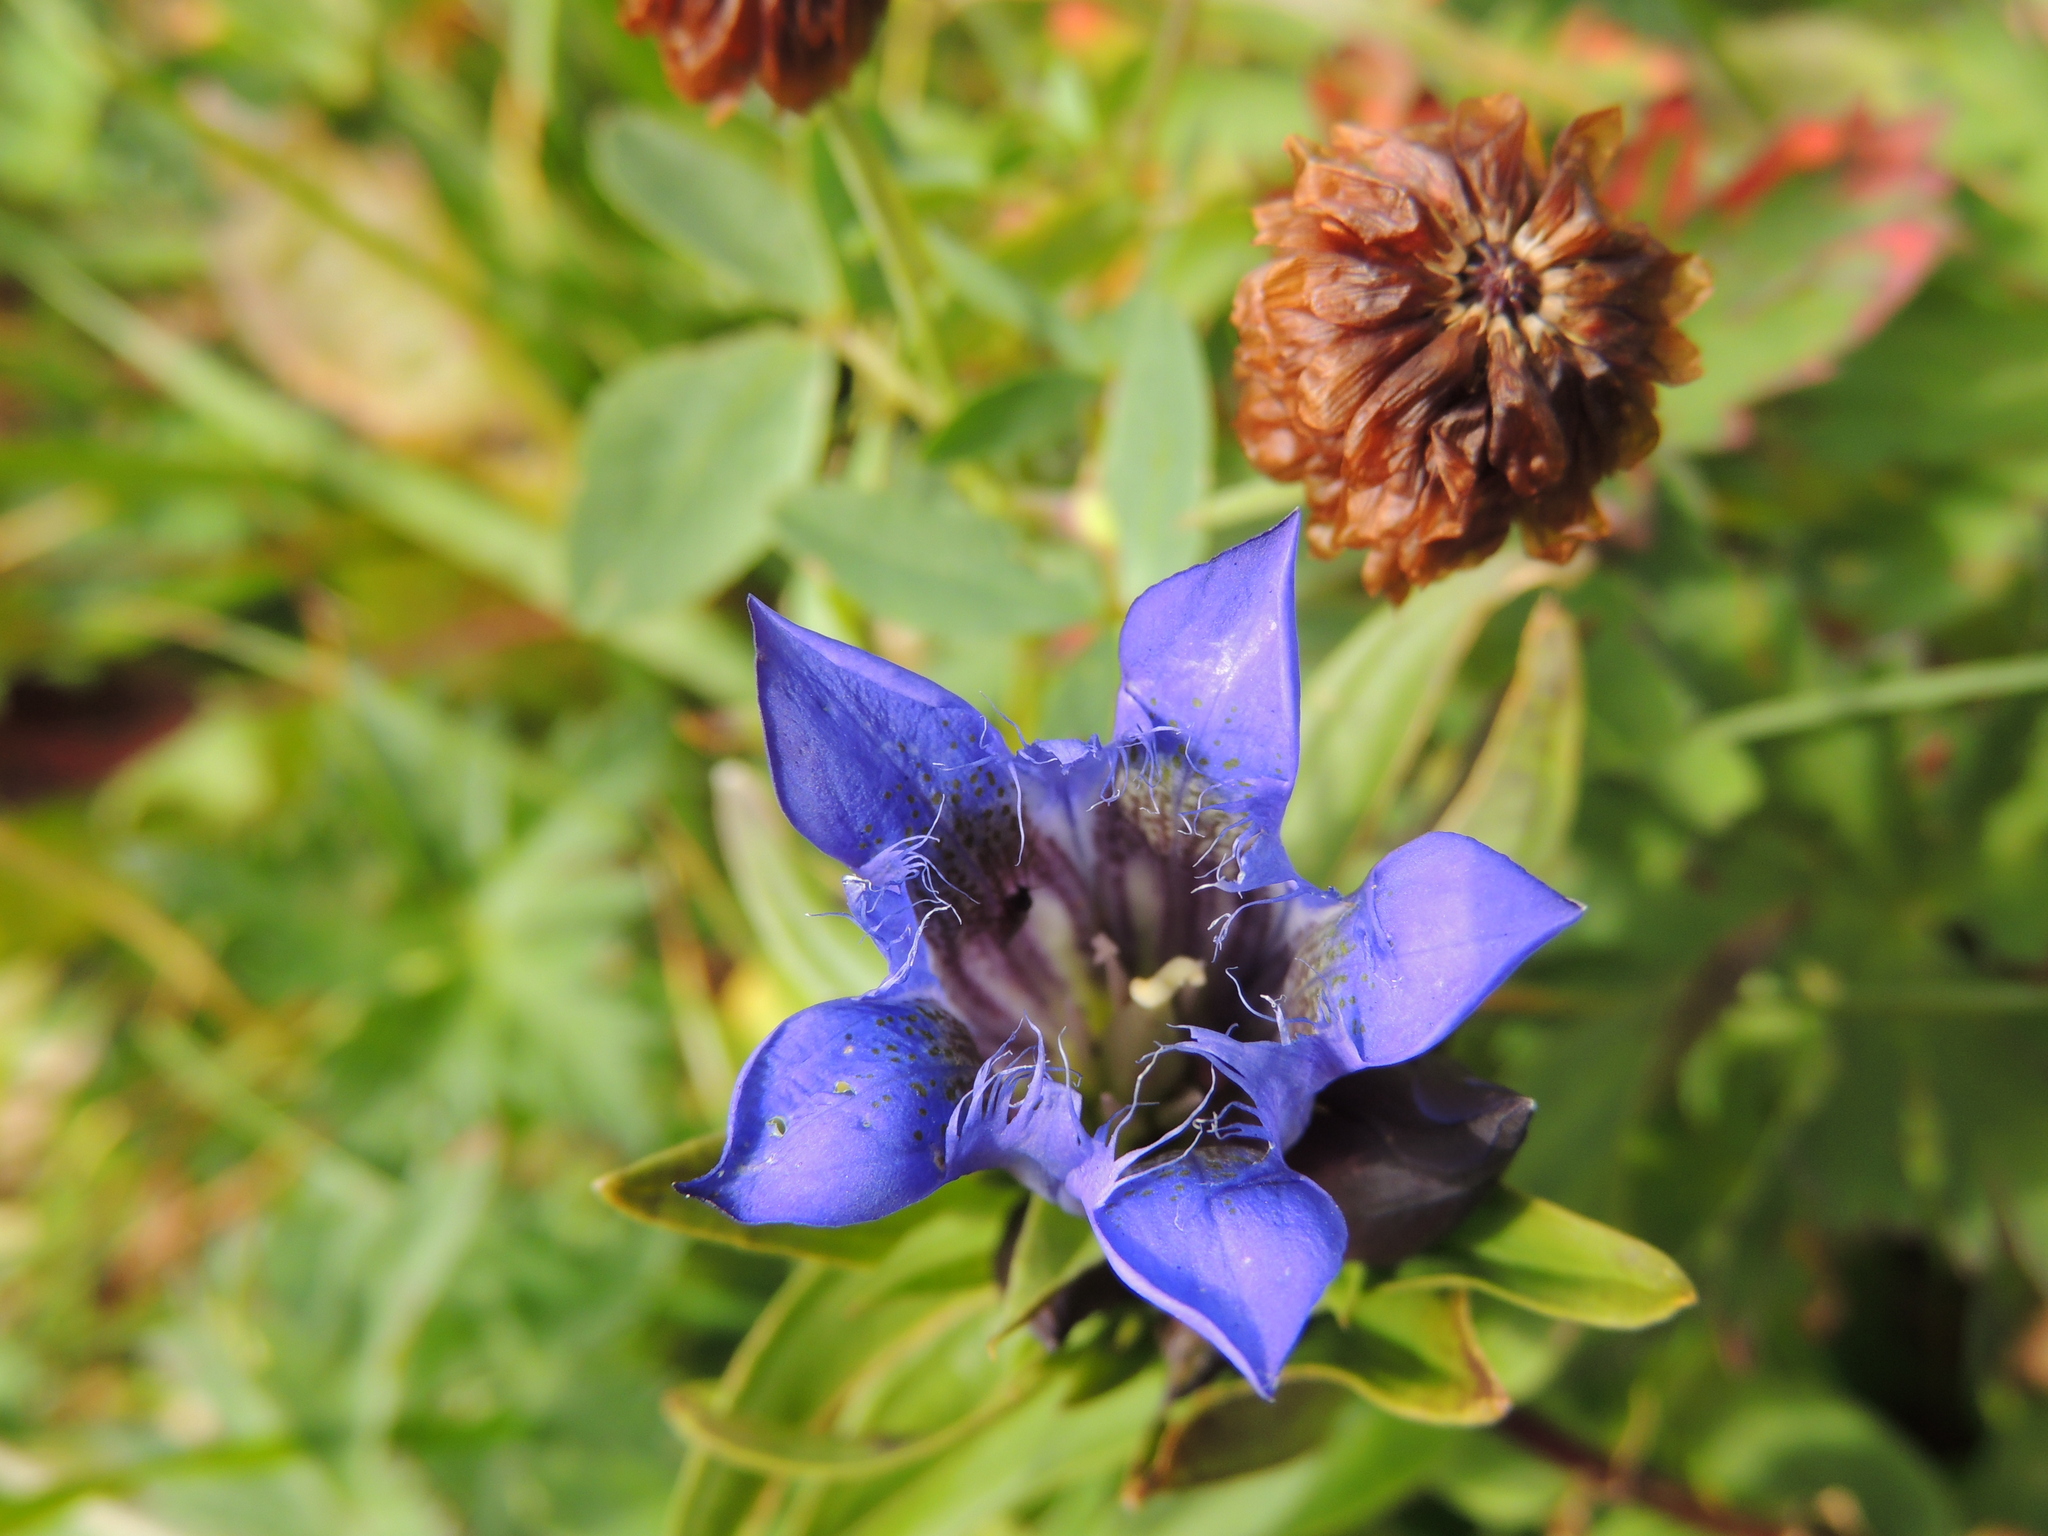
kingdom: Plantae
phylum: Tracheophyta
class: Magnoliopsida
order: Gentianales
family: Gentianaceae
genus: Gentiana
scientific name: Gentiana septemfida
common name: Crested gentian
